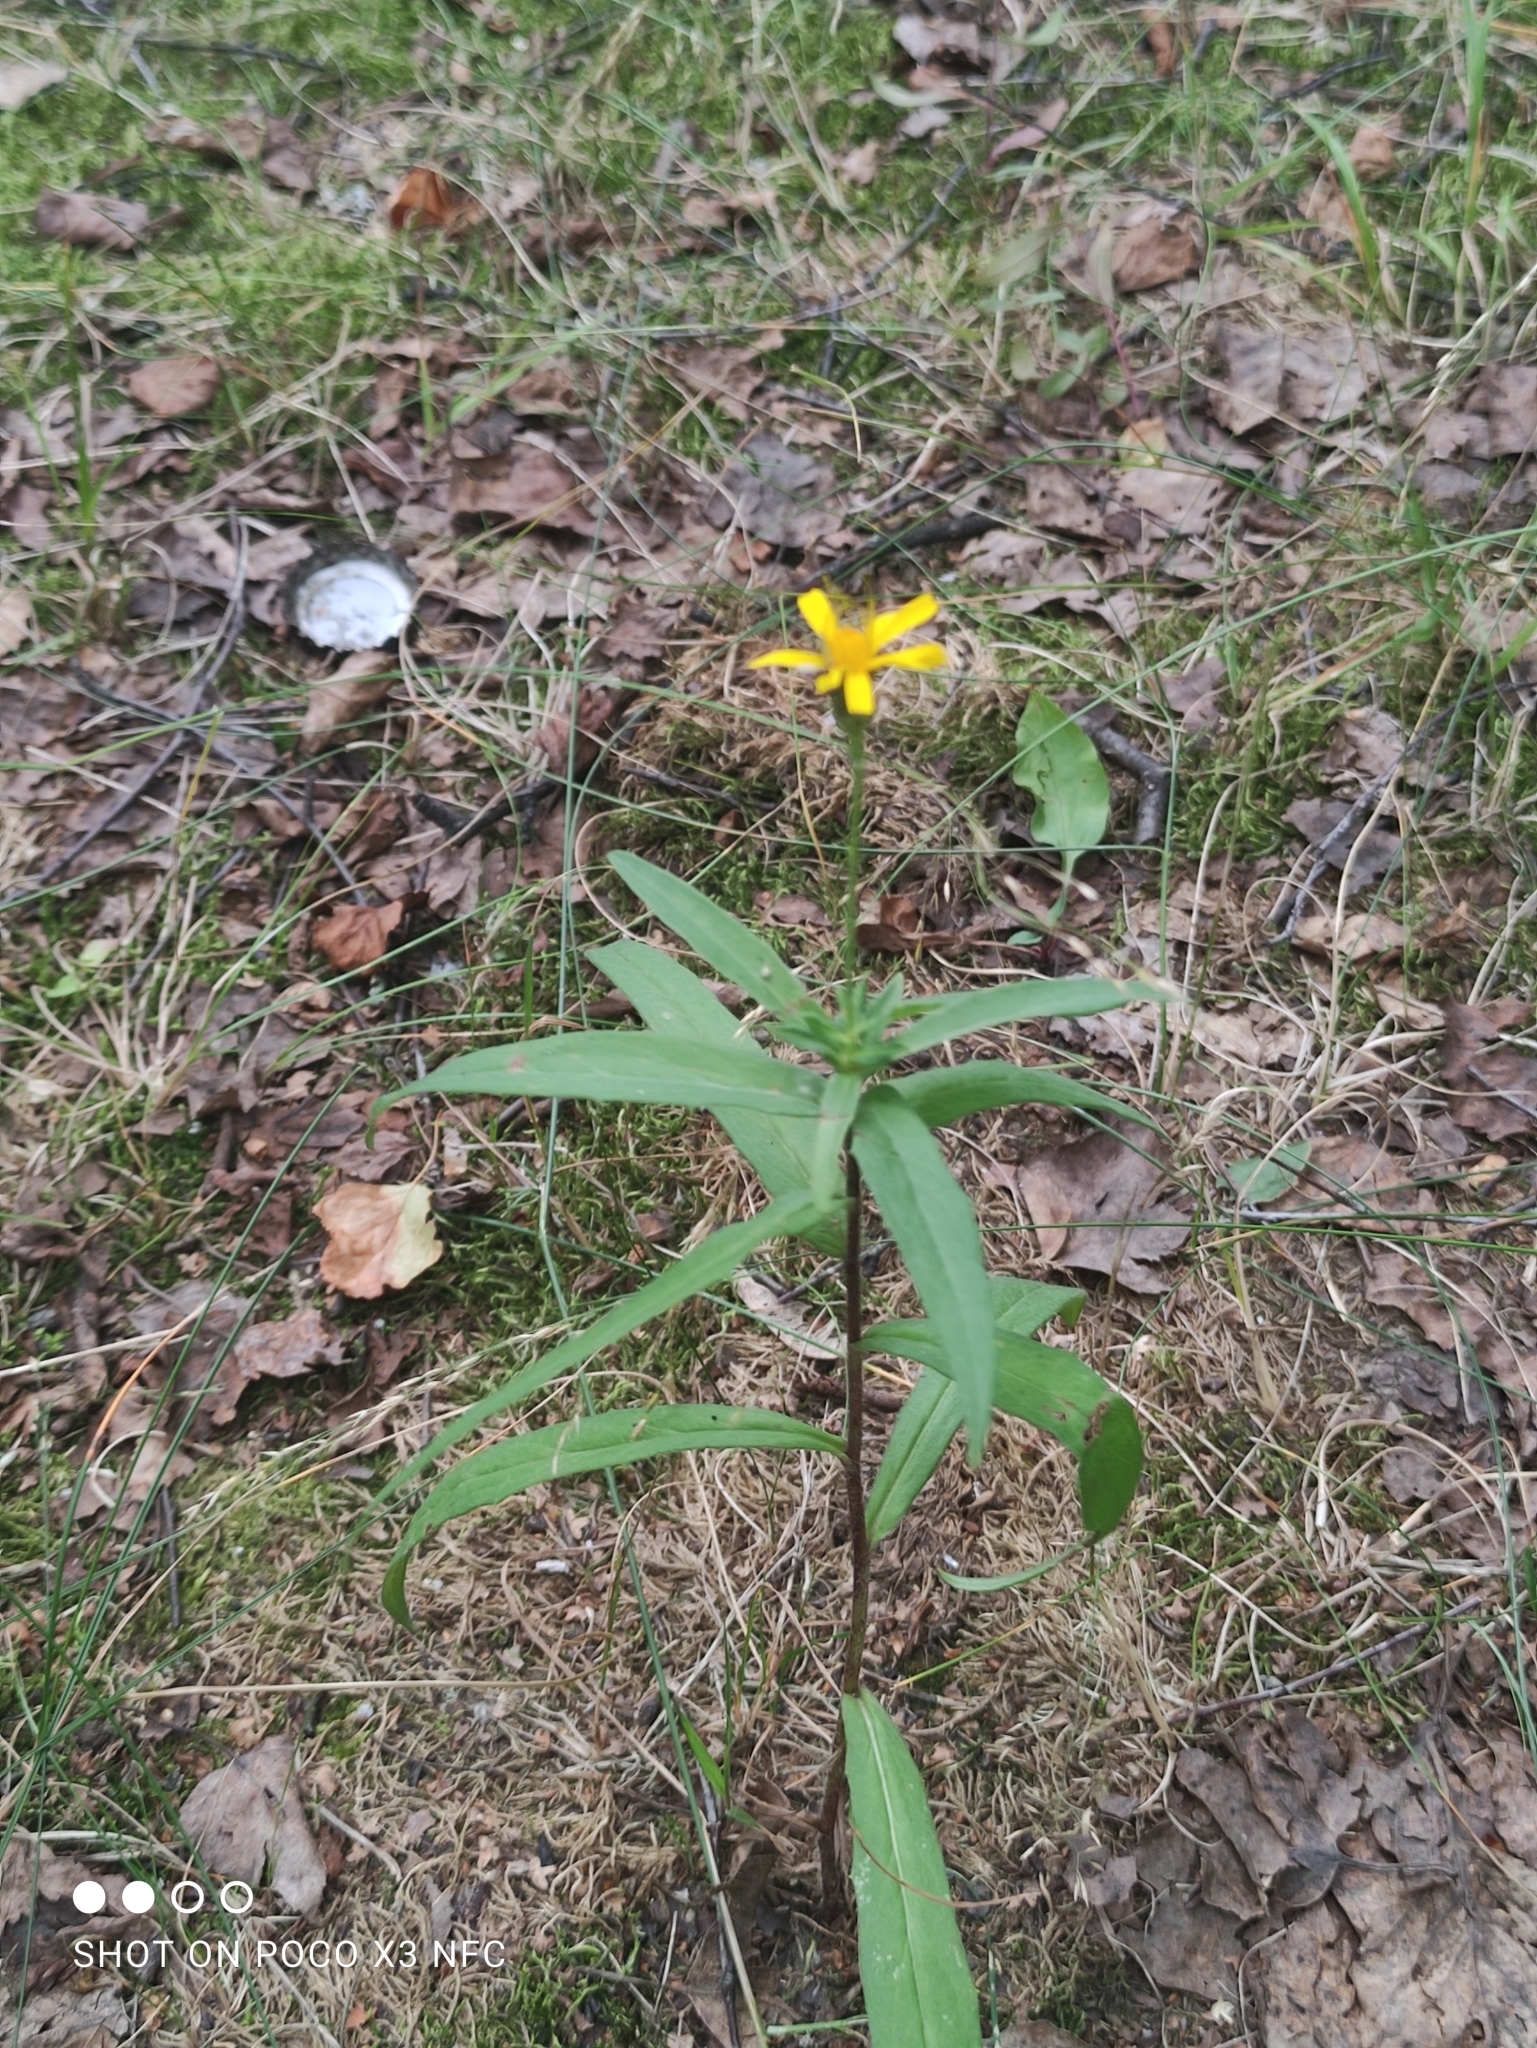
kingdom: Plantae
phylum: Tracheophyta
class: Magnoliopsida
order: Asterales
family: Asteraceae
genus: Hieracium
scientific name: Hieracium umbellatum
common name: Northern hawkweed
